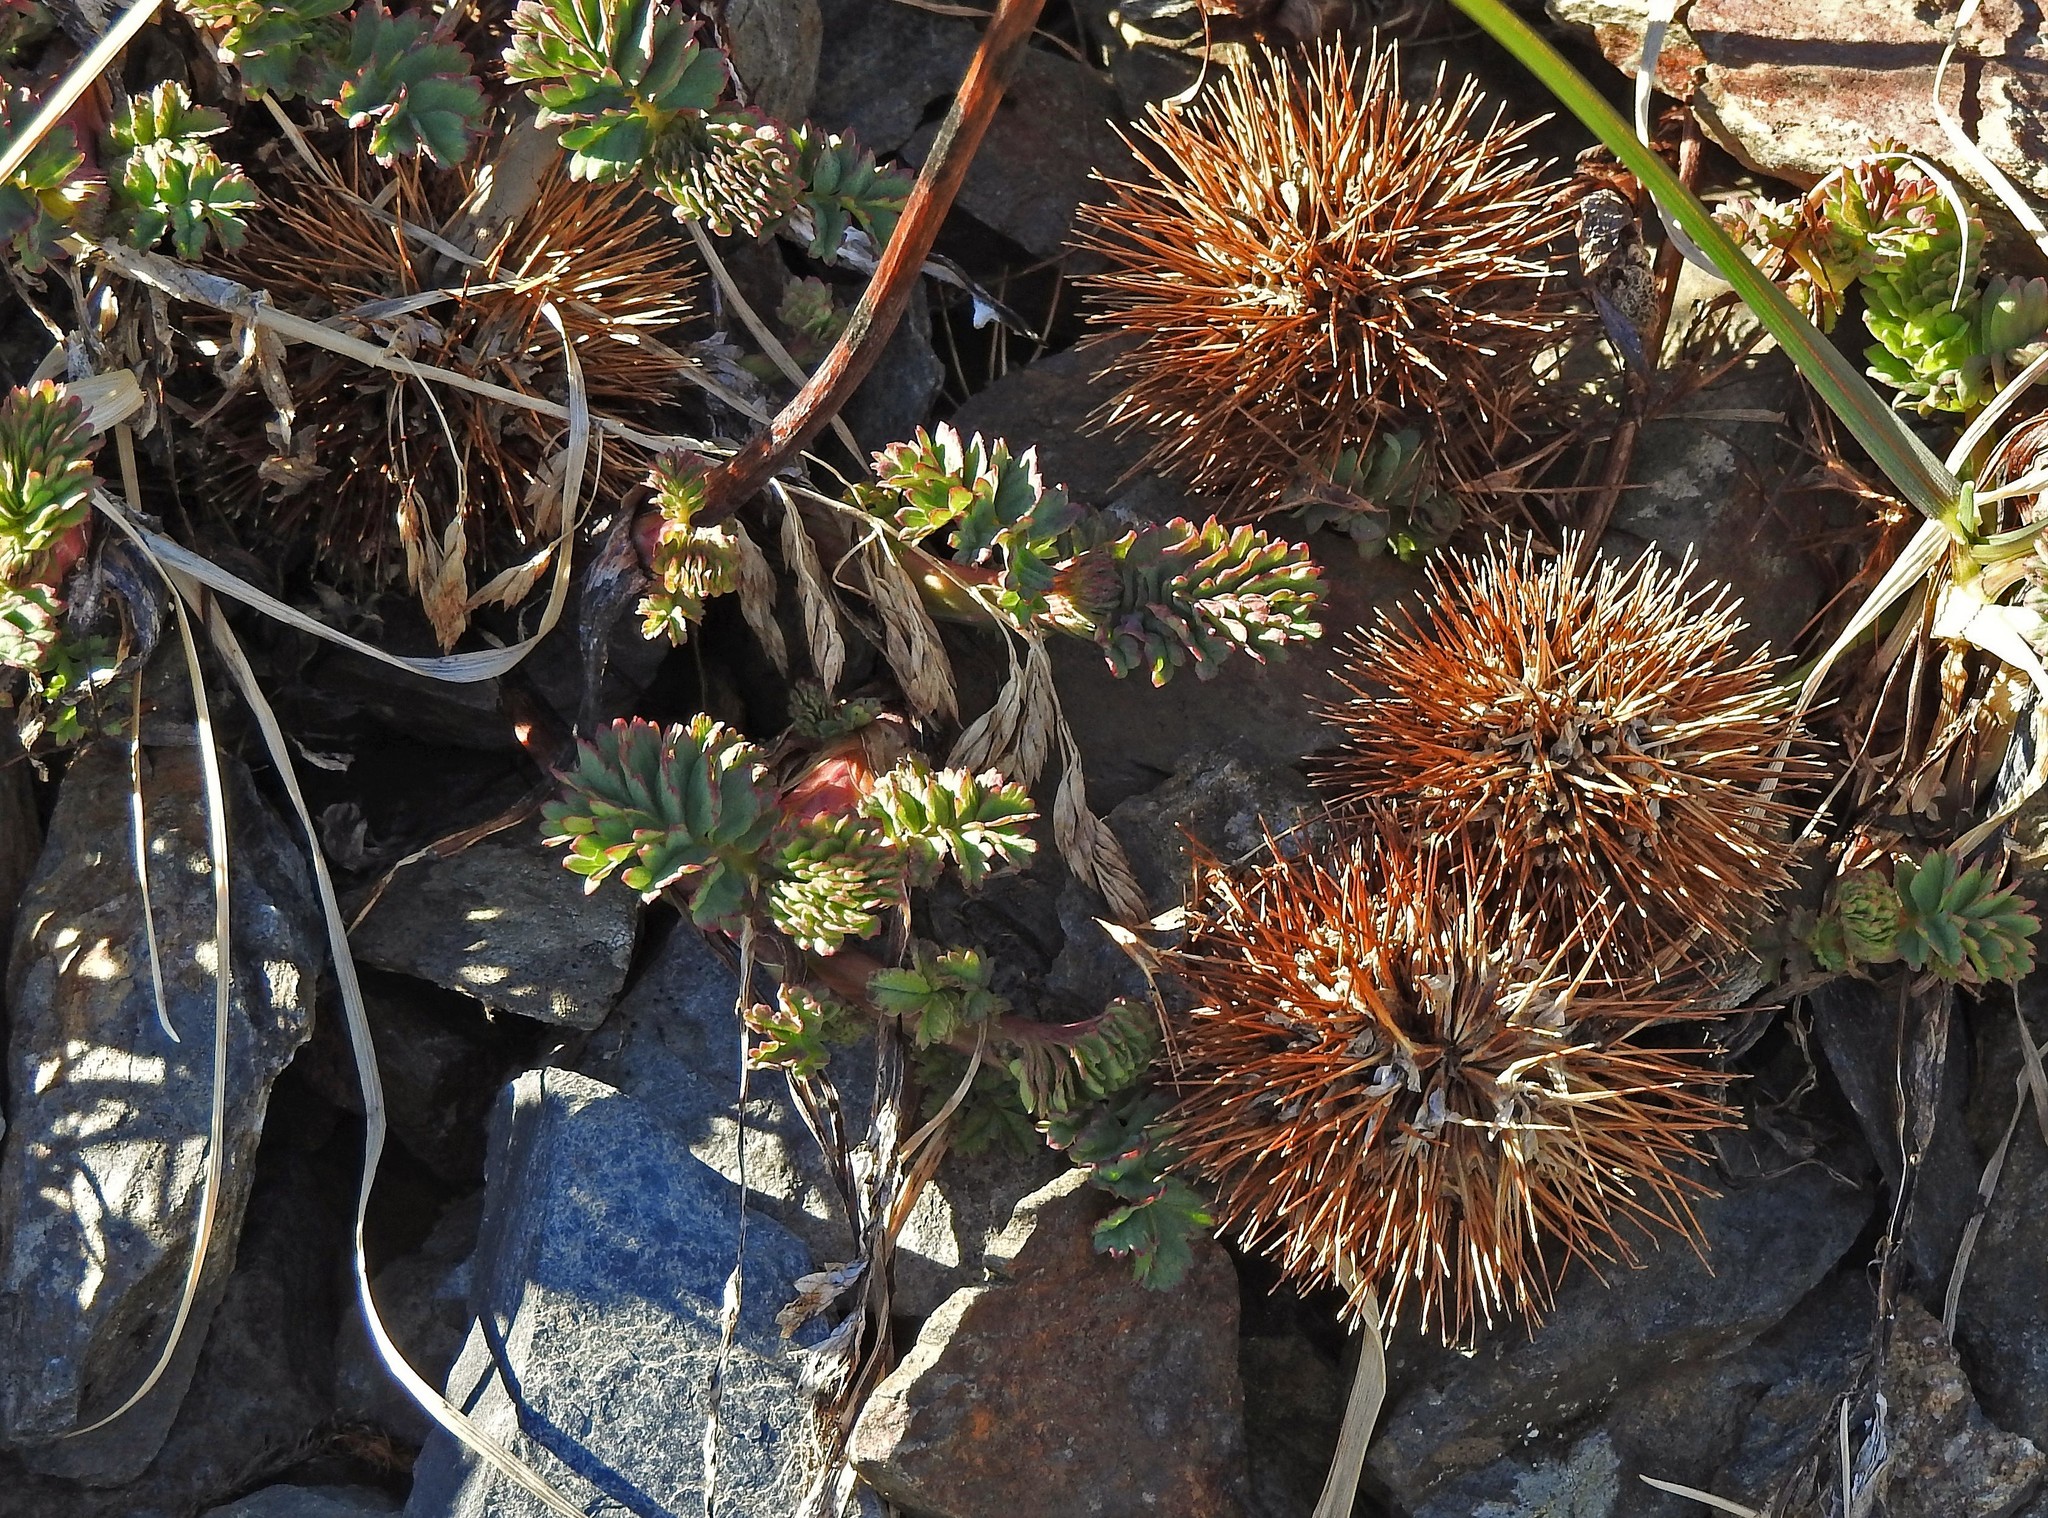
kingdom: Plantae
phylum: Tracheophyta
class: Magnoliopsida
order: Rosales
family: Rosaceae
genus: Acaena
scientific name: Acaena magellanica
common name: New zealand burr
